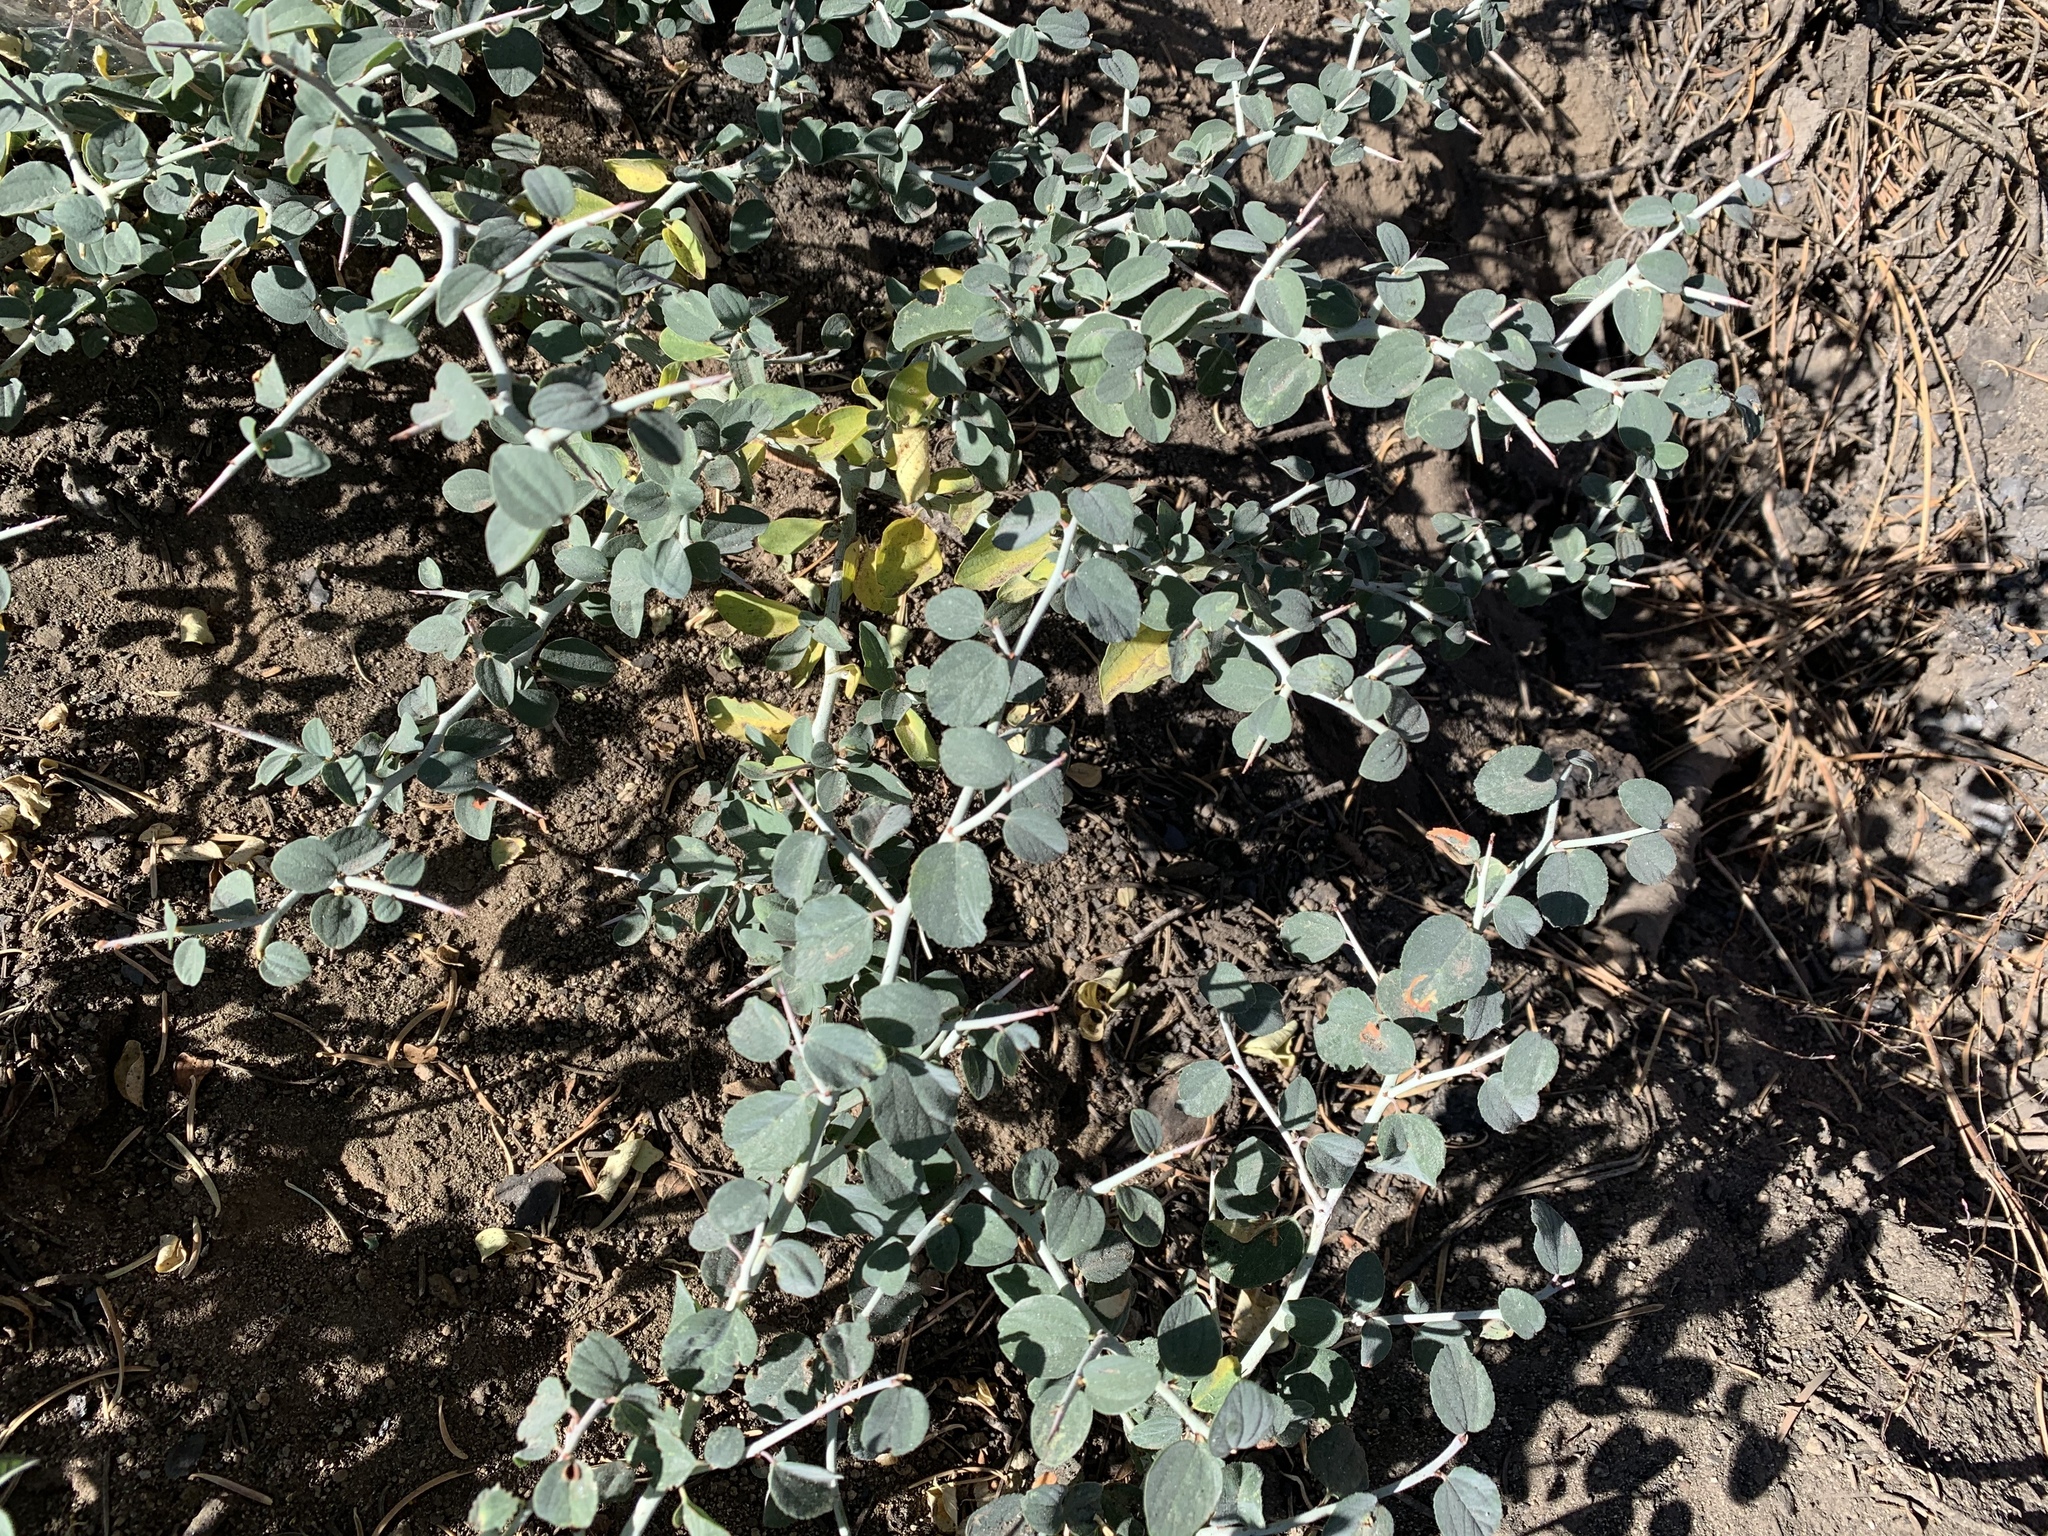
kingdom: Plantae
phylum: Tracheophyta
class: Magnoliopsida
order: Rosales
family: Rhamnaceae
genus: Ceanothus
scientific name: Ceanothus cordulatus
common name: Mountain whitethorn
